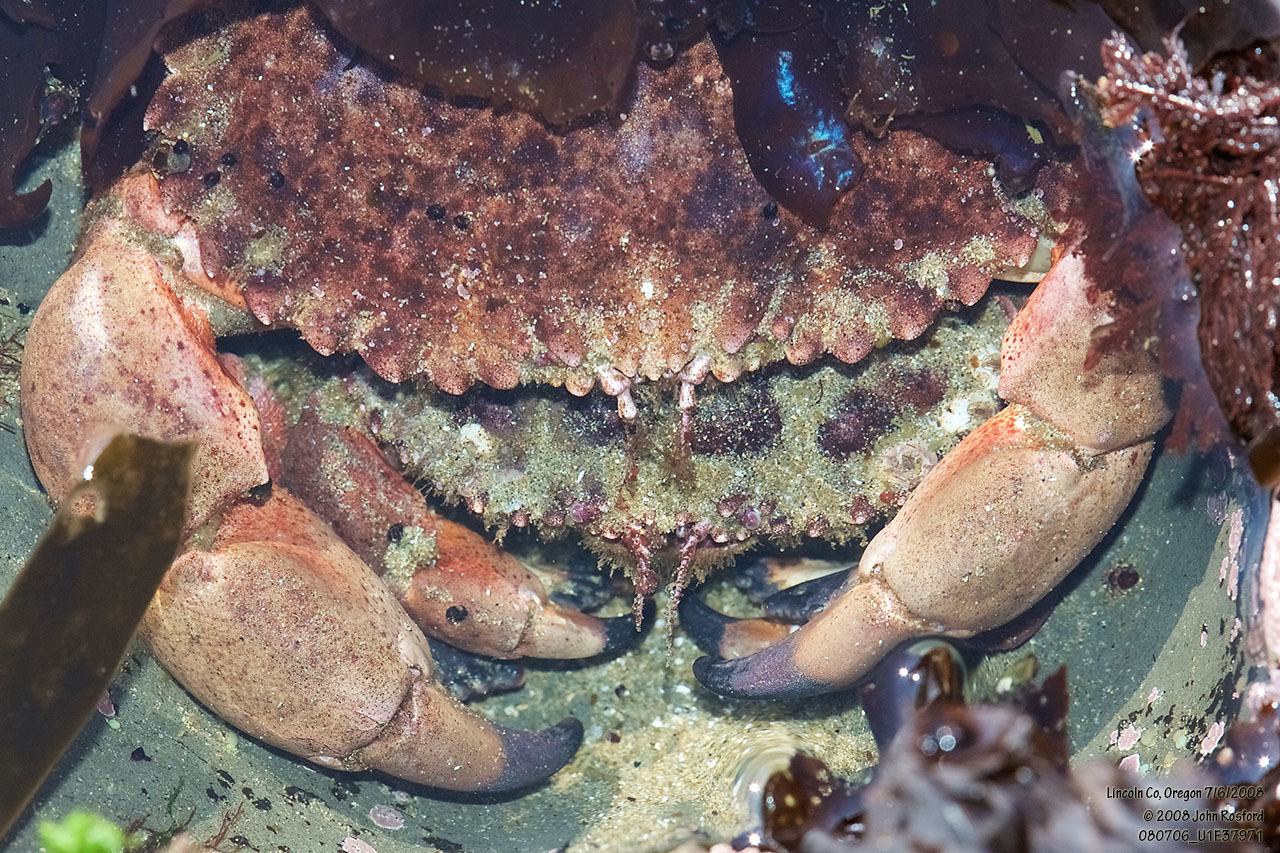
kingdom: Animalia
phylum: Arthropoda
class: Malacostraca
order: Decapoda
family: Cancridae
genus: Romaleon
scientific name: Romaleon antennarium
